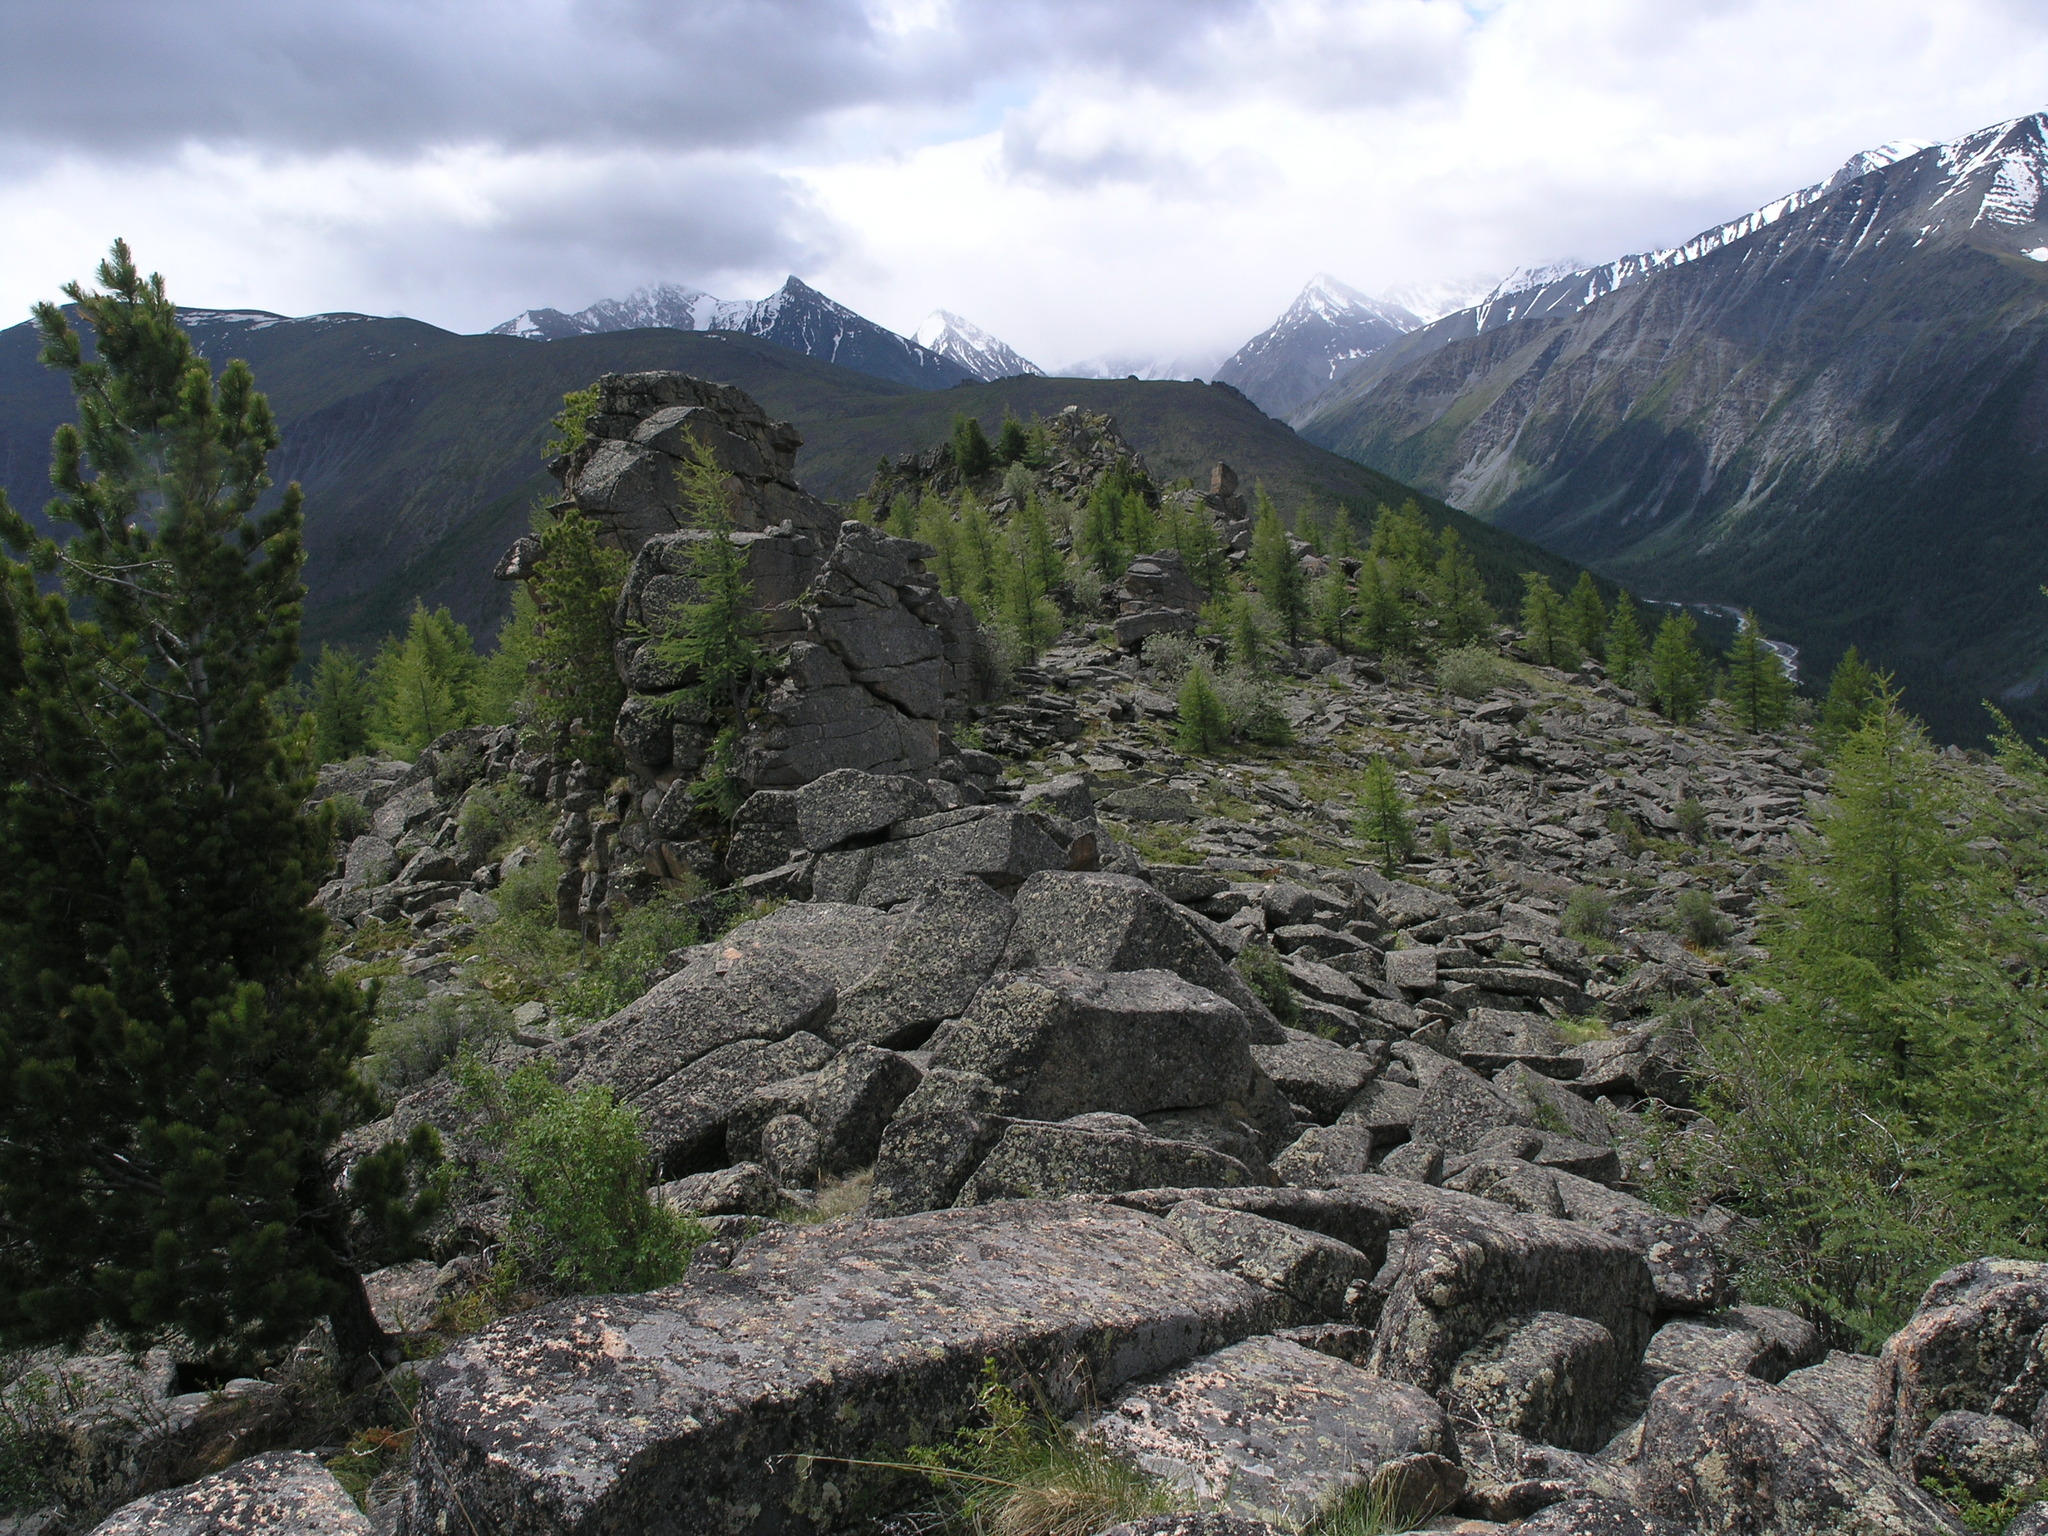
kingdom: Plantae
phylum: Tracheophyta
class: Pinopsida
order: Pinales
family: Pinaceae
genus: Larix
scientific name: Larix sibirica
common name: Siberian larch
